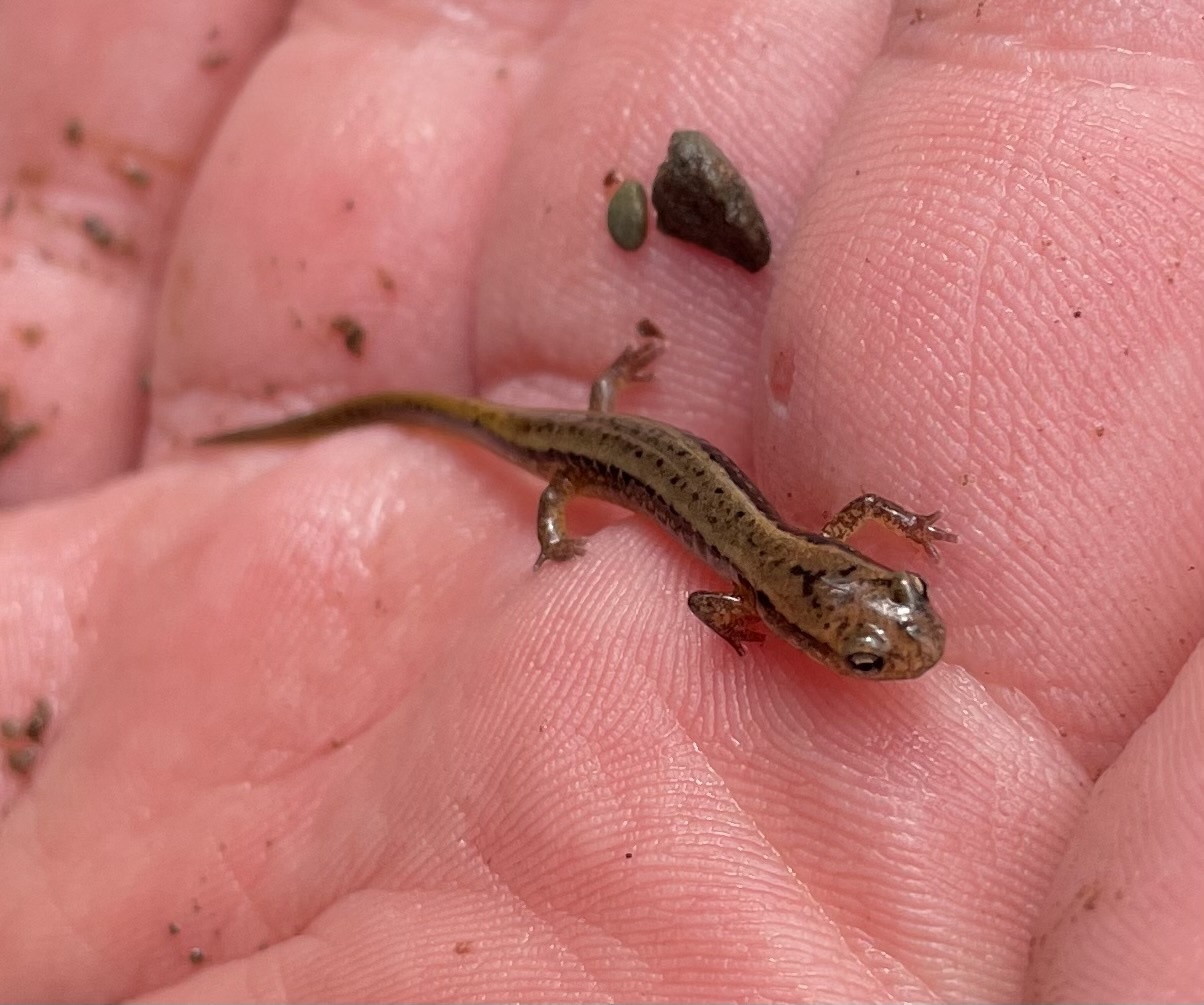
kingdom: Animalia
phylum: Chordata
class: Amphibia
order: Caudata
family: Plethodontidae
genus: Eurycea
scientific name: Eurycea bislineata
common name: Northern two-lined salamander
